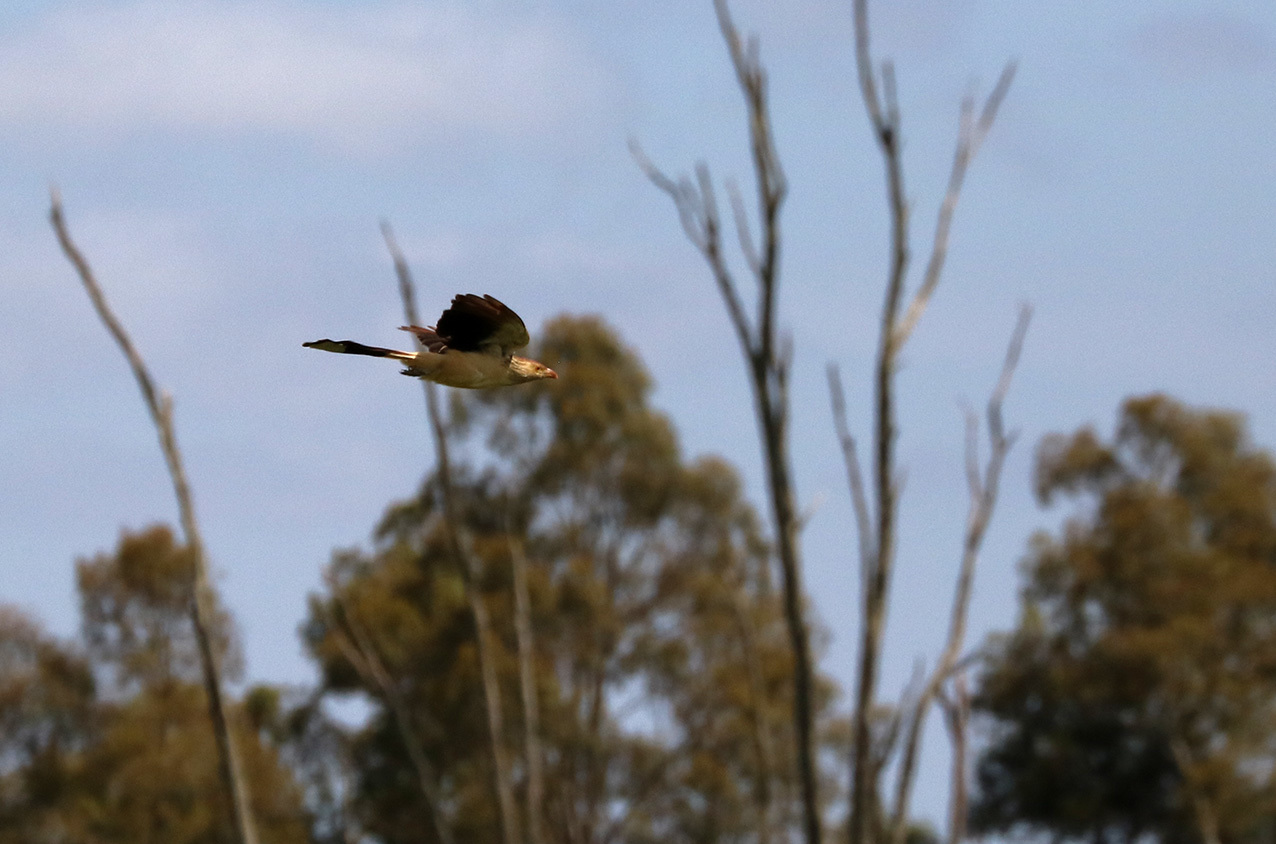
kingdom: Animalia
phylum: Chordata
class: Aves
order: Cuculiformes
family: Cuculidae
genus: Guira
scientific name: Guira guira
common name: Guira cuckoo
